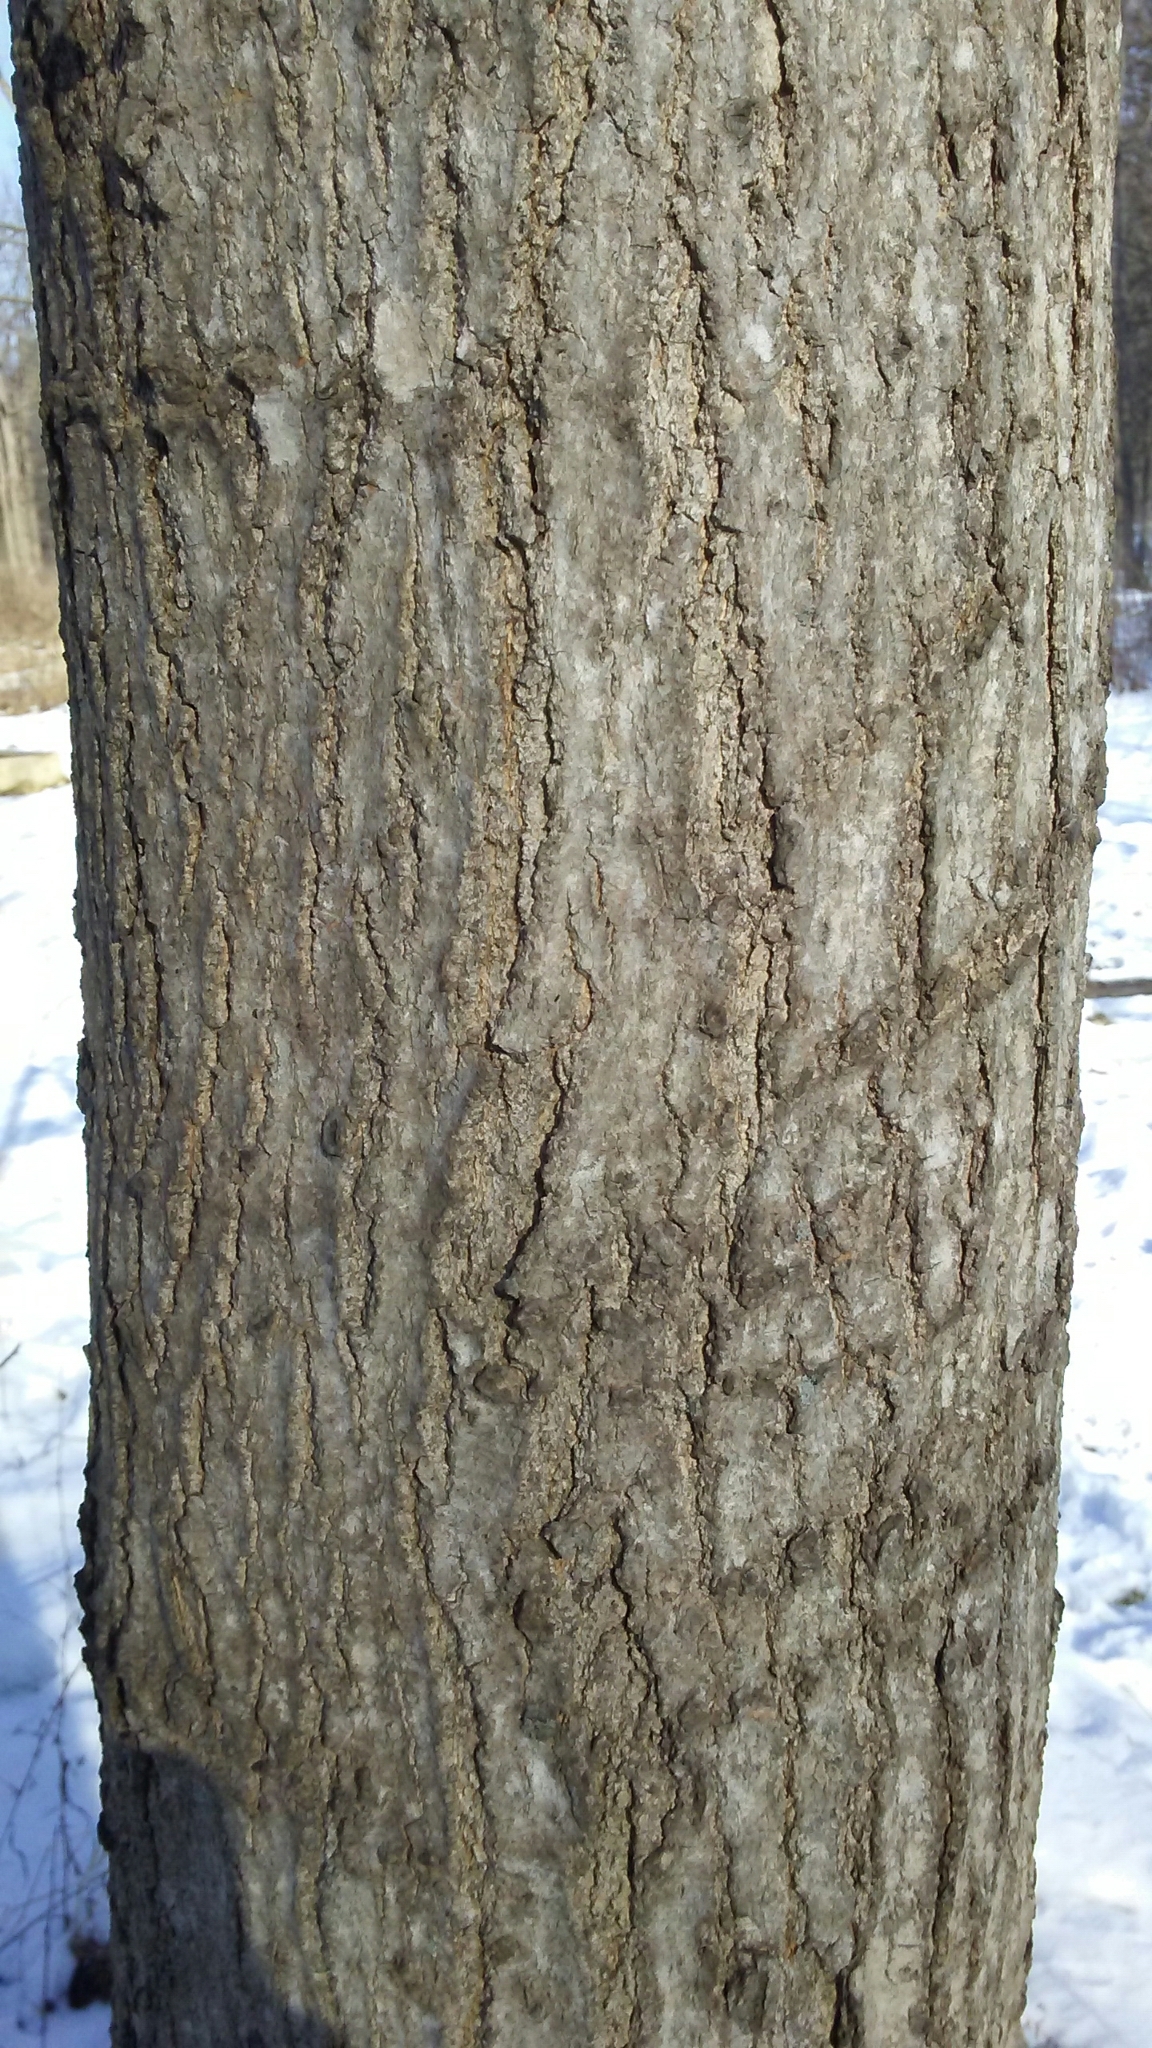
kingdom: Plantae
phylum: Tracheophyta
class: Magnoliopsida
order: Sapindales
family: Sapindaceae
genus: Acer
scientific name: Acer saccharum
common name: Sugar maple
